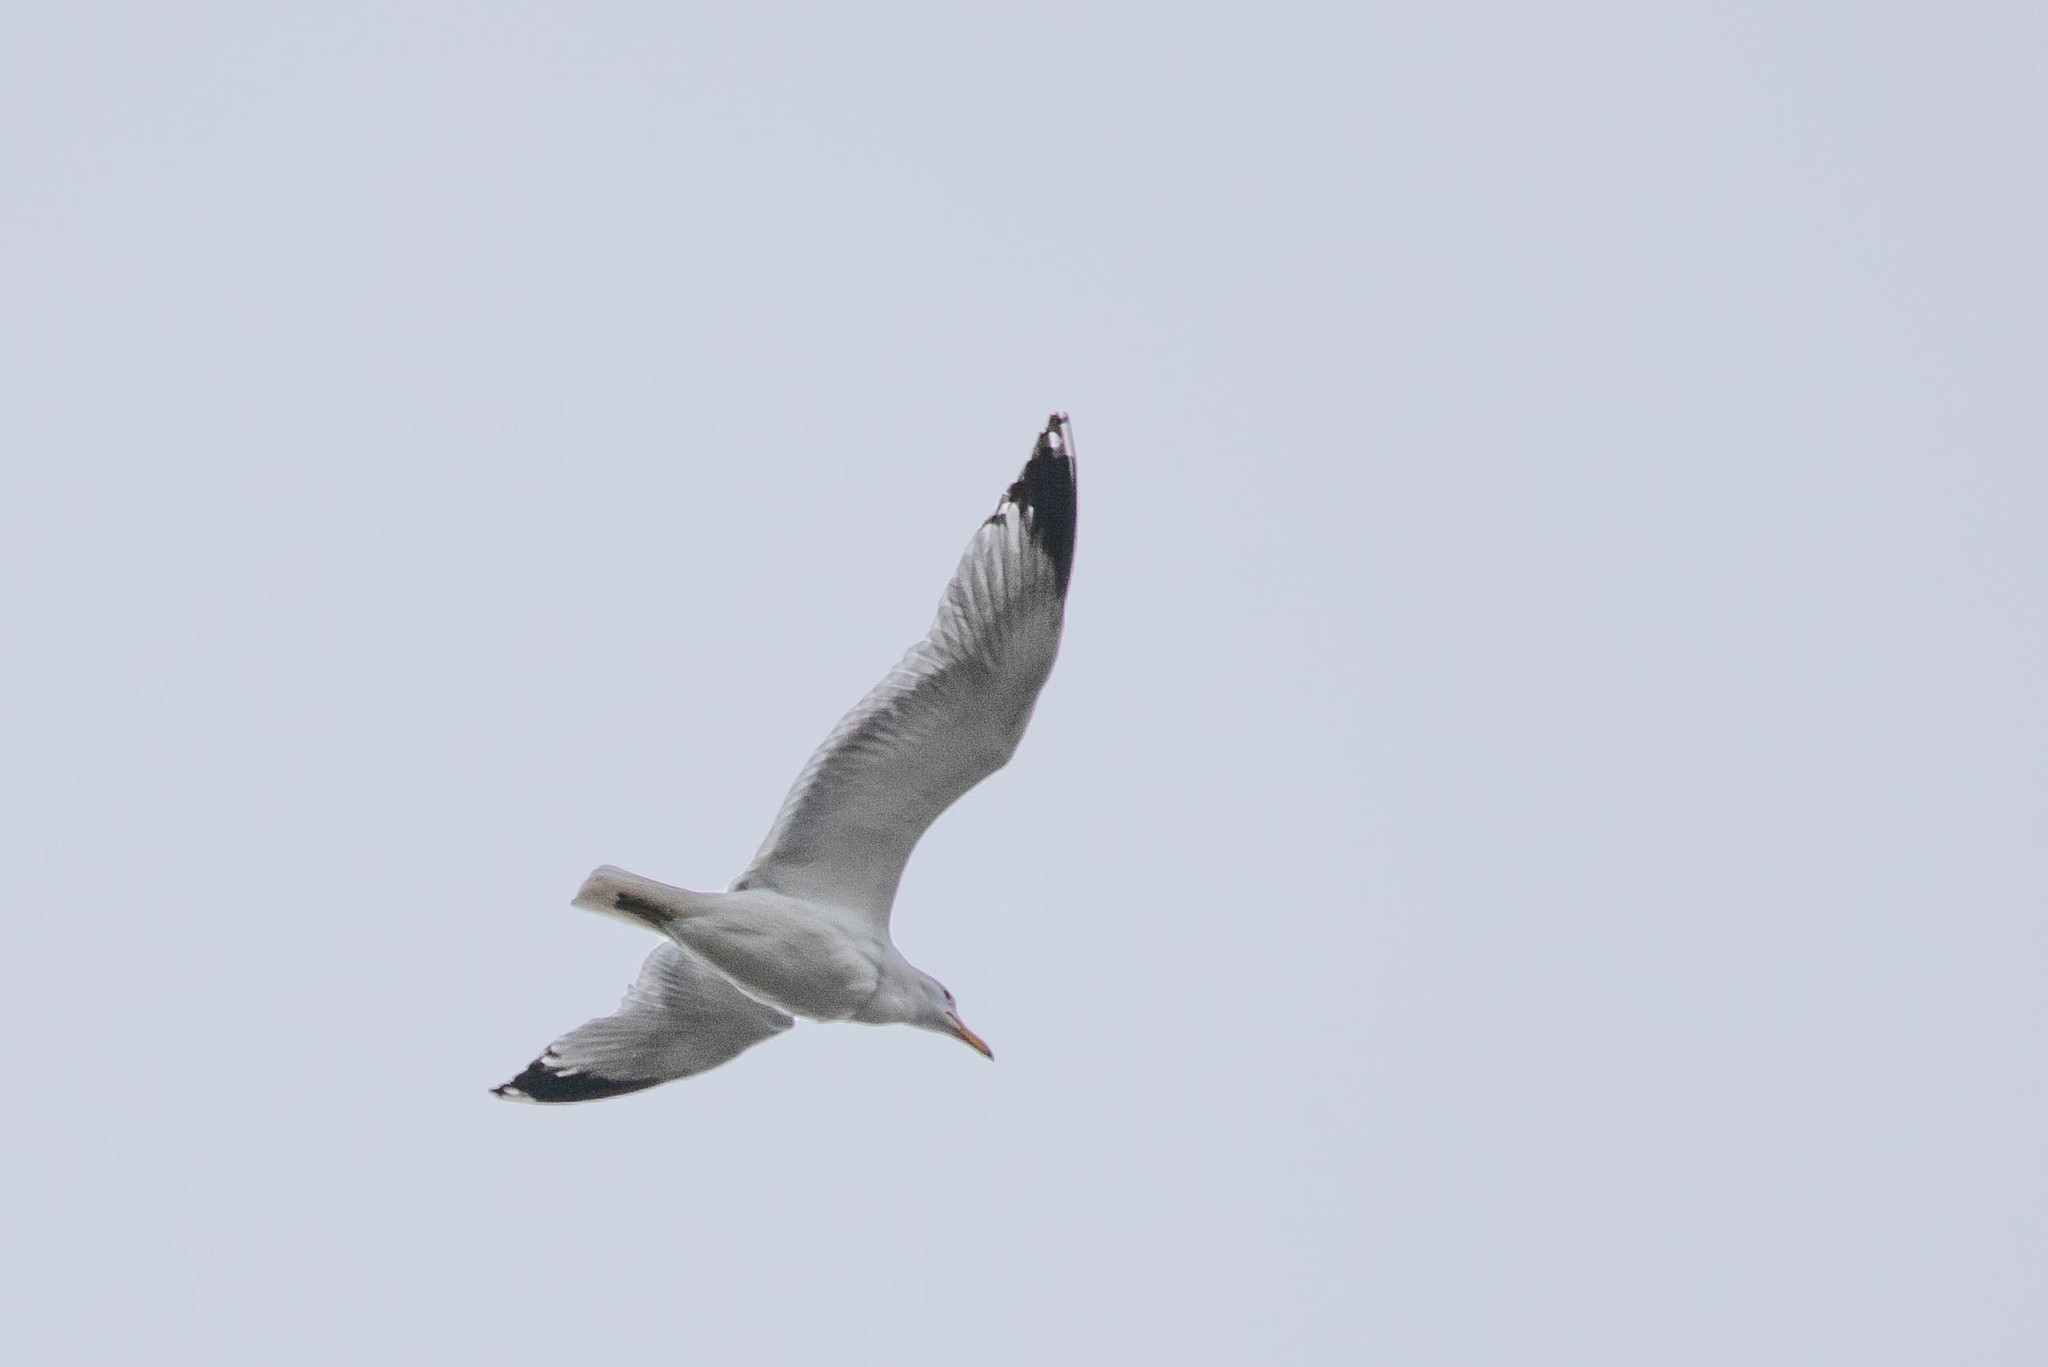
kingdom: Animalia
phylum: Chordata
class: Aves
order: Charadriiformes
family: Laridae
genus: Larus
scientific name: Larus californicus
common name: California gull
